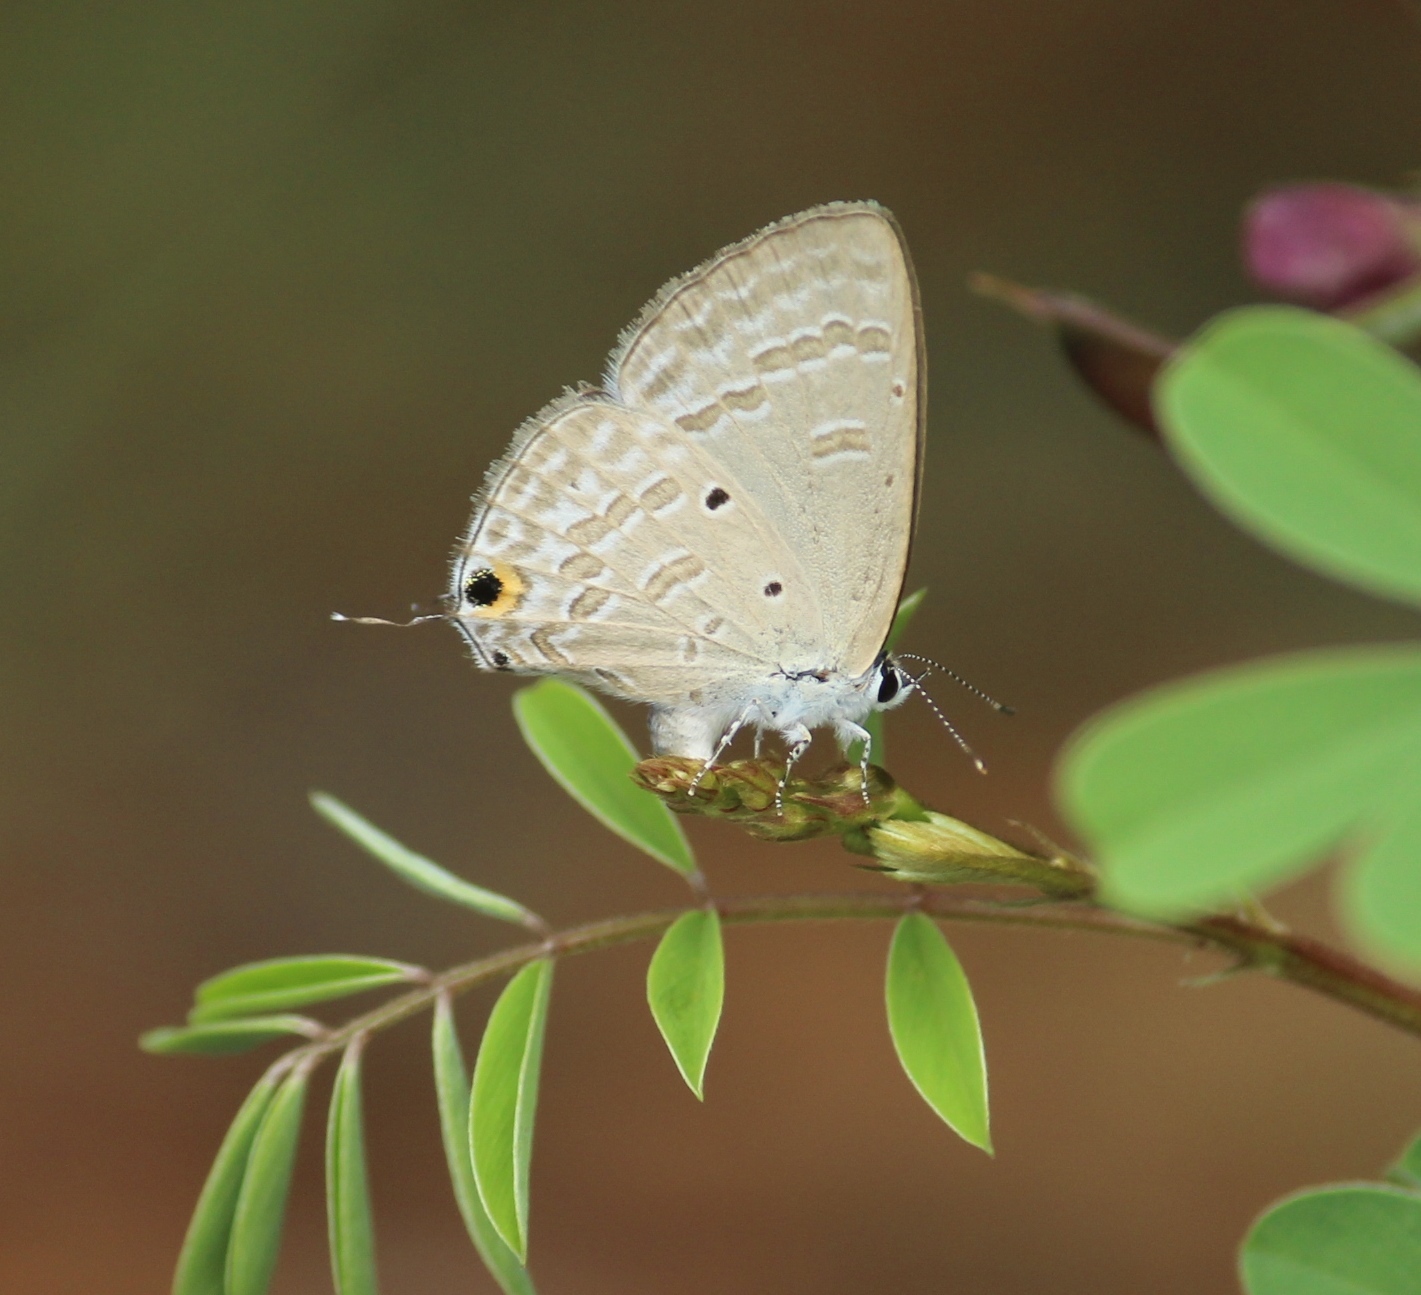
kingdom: Animalia
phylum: Arthropoda
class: Insecta
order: Lepidoptera
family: Lycaenidae
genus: Catochrysops
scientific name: Catochrysops strabo
